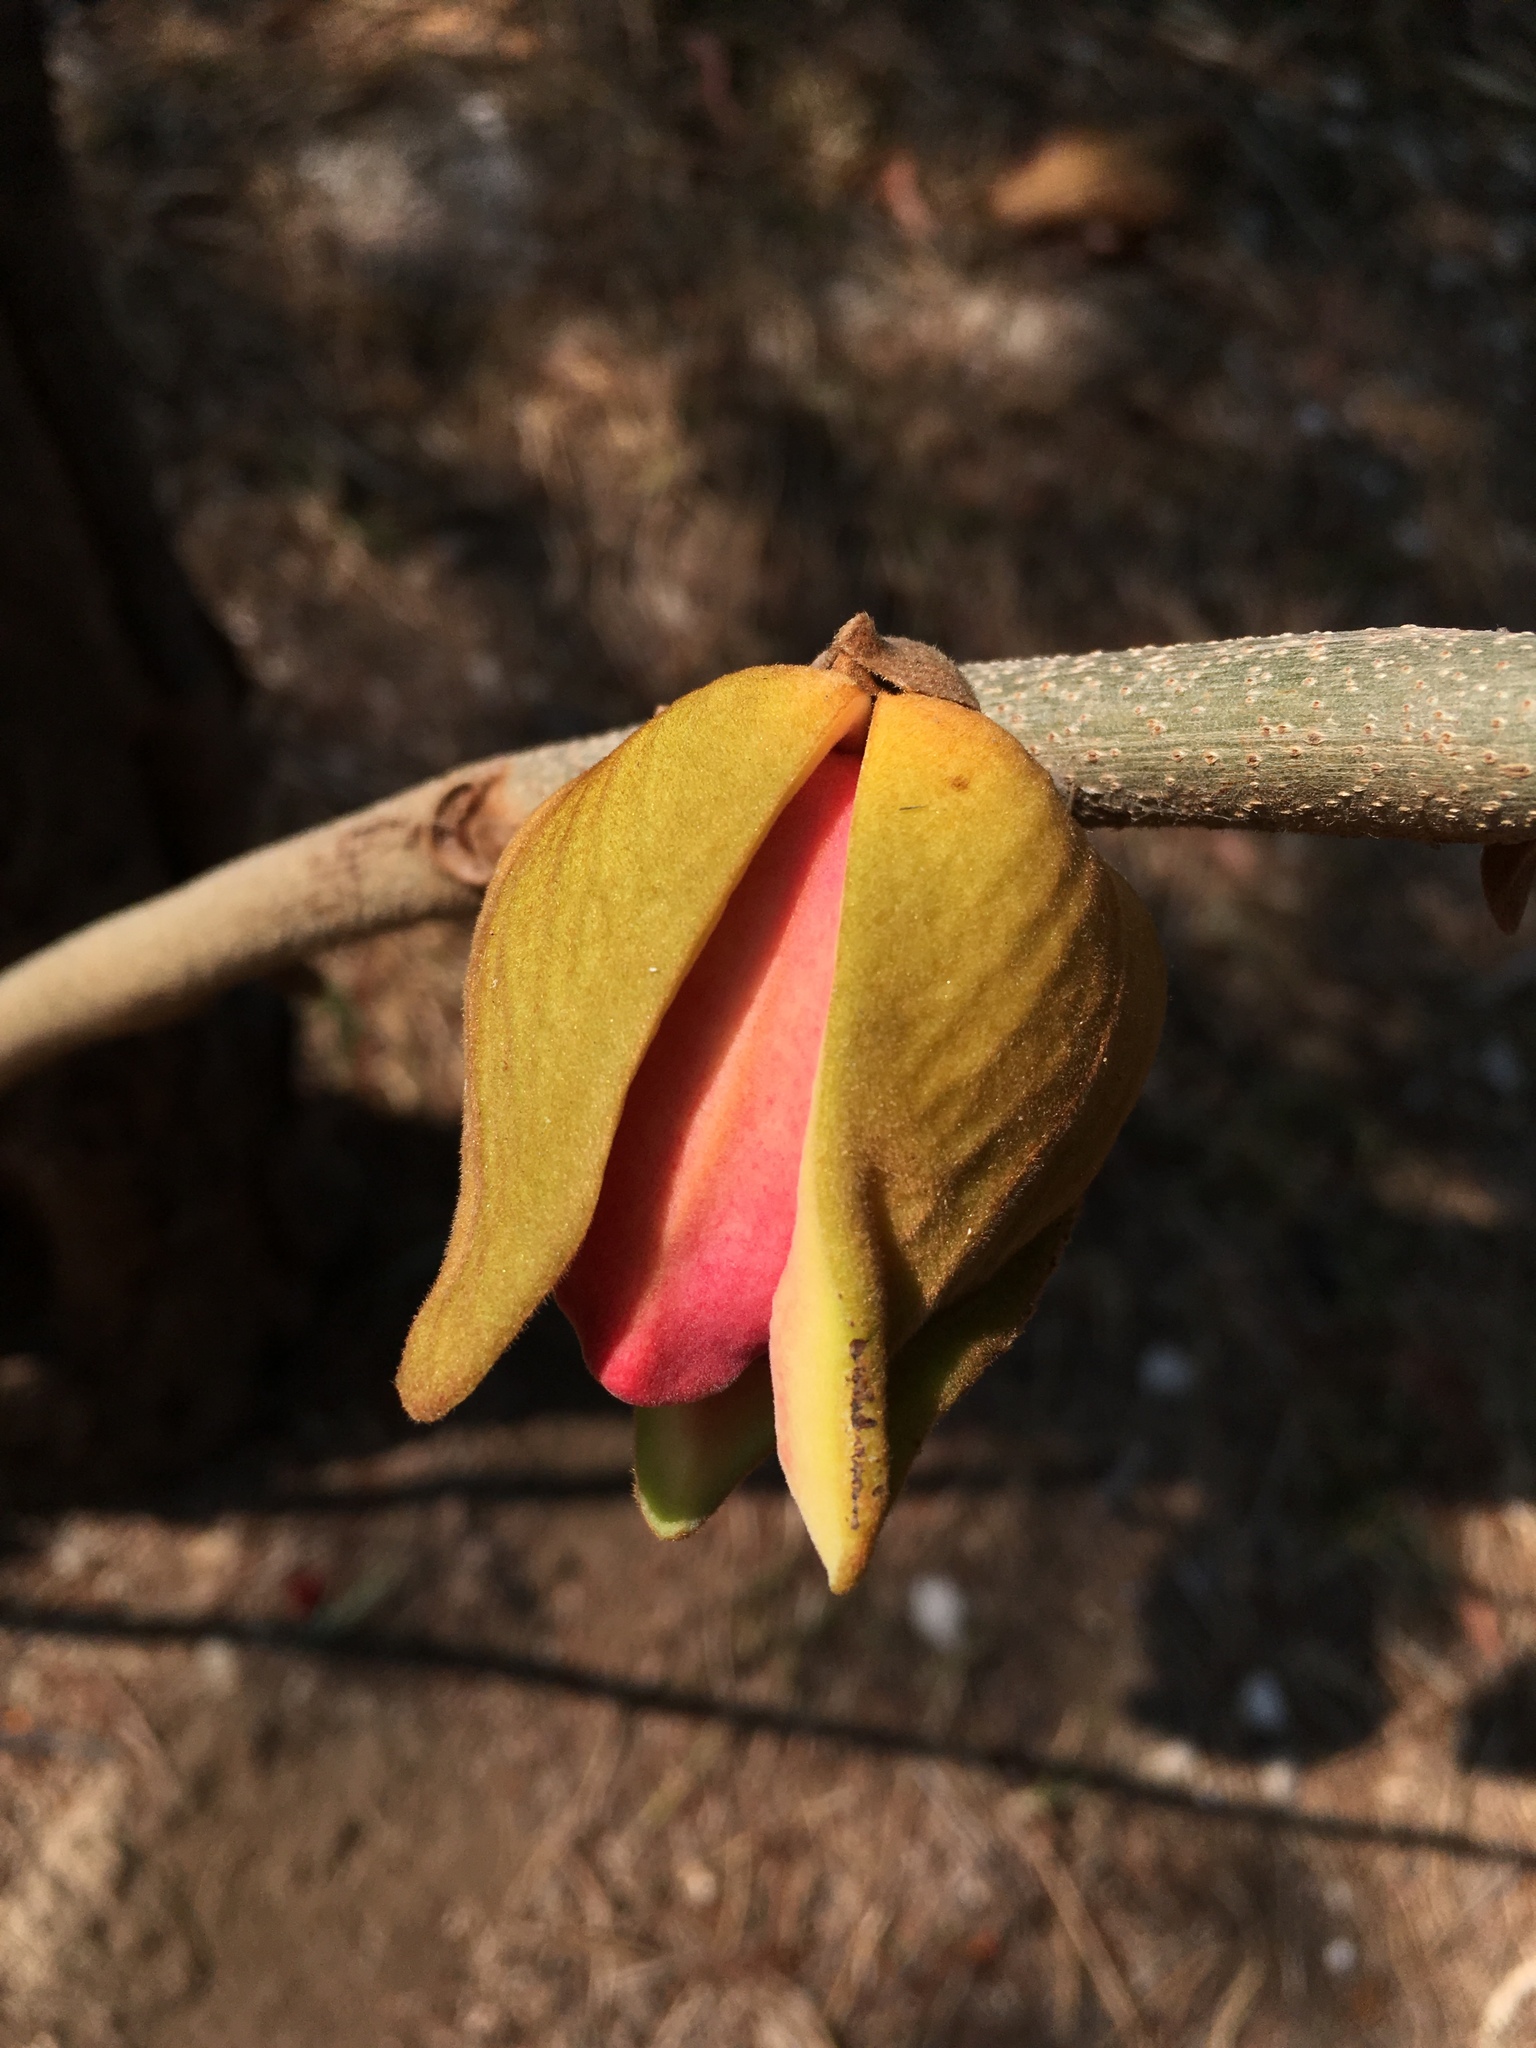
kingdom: Plantae
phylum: Tracheophyta
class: Magnoliopsida
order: Magnoliales
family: Annonaceae
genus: Annona
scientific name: Annona purpurea
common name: Negrohead
